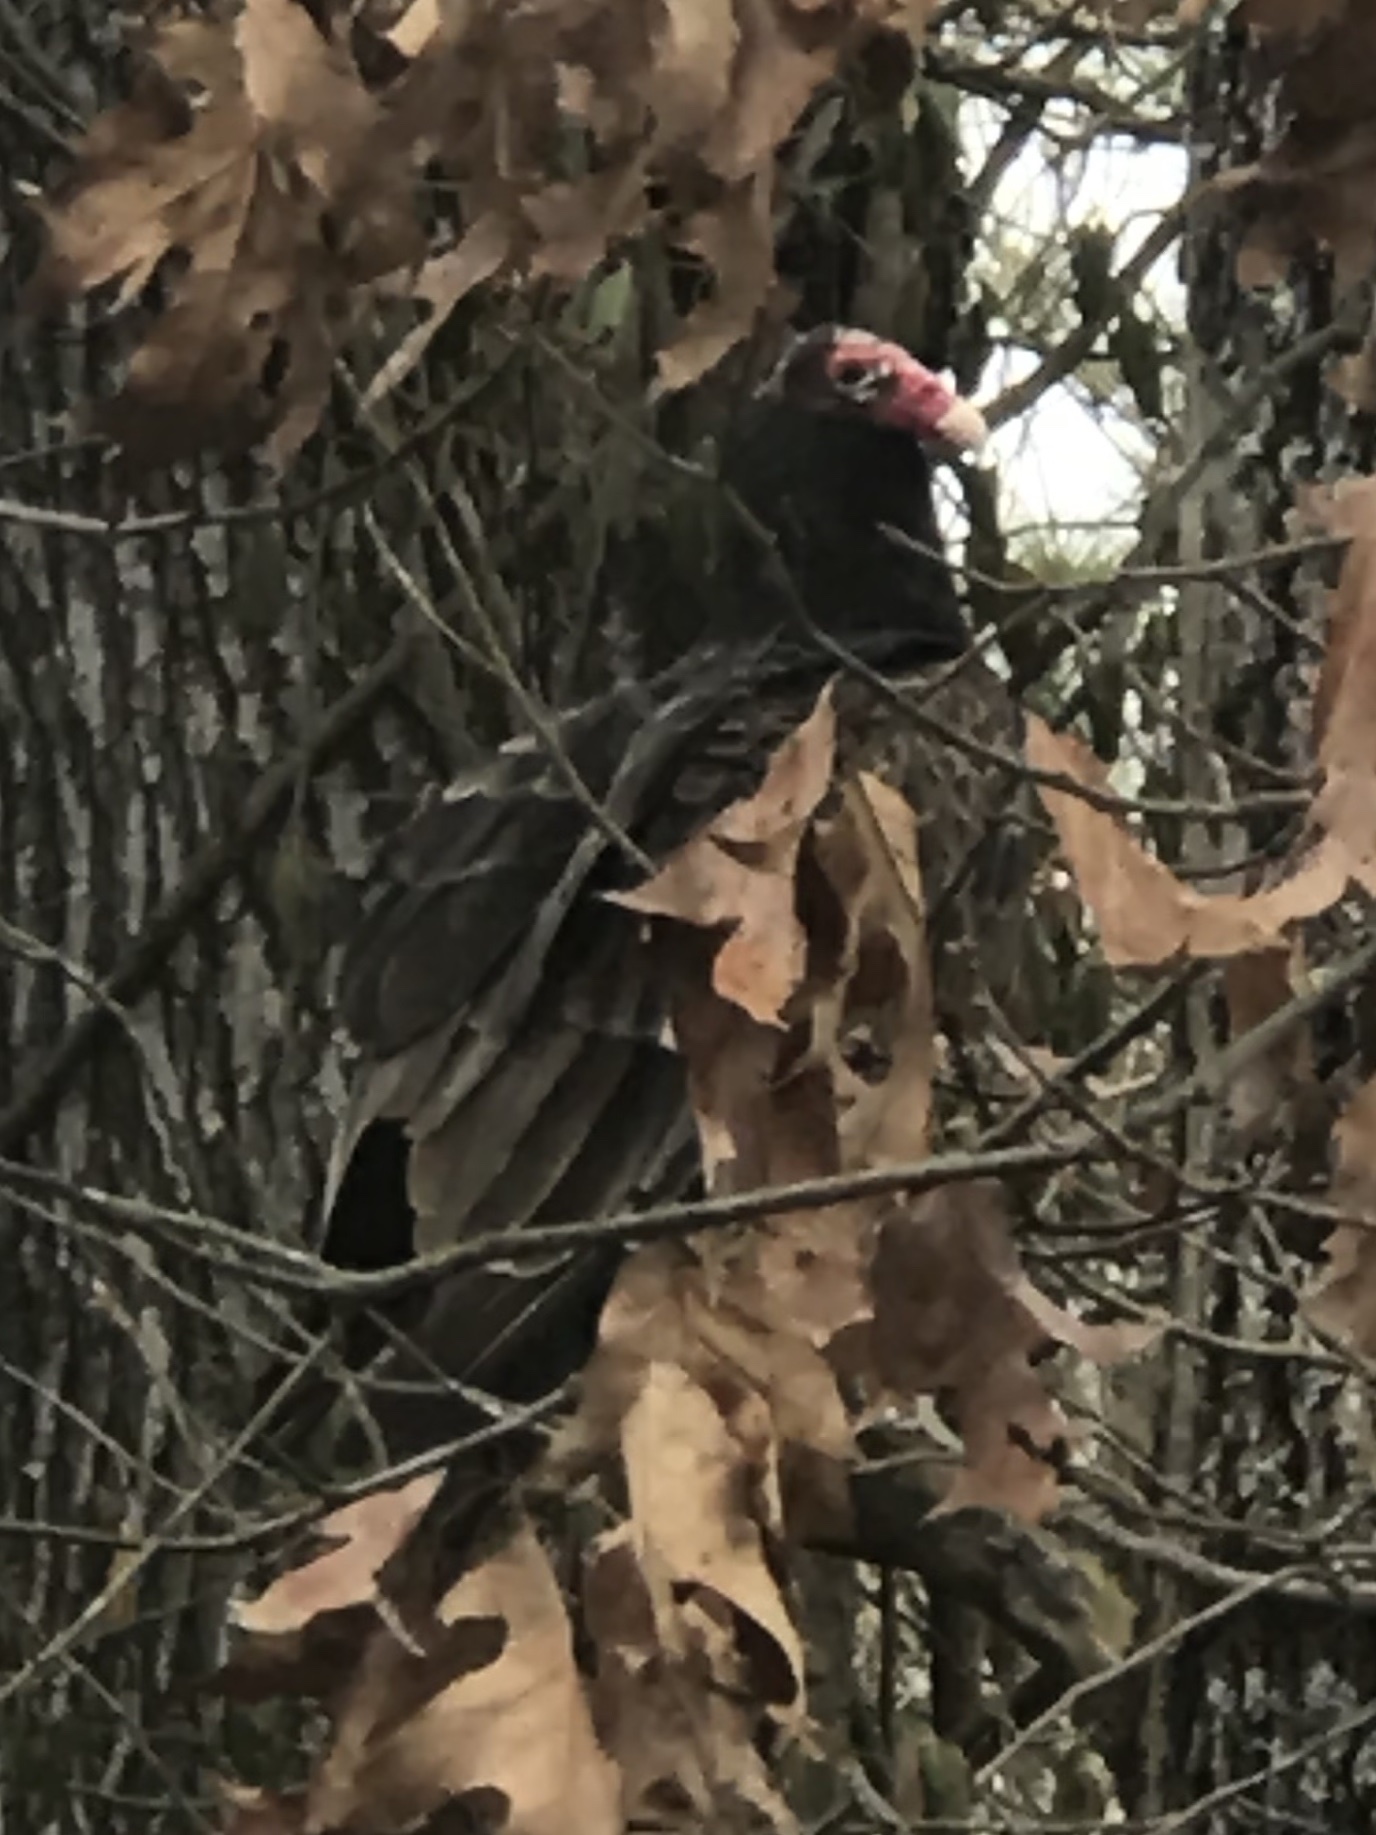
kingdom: Animalia
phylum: Chordata
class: Aves
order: Accipitriformes
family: Cathartidae
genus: Cathartes
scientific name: Cathartes aura
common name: Turkey vulture
